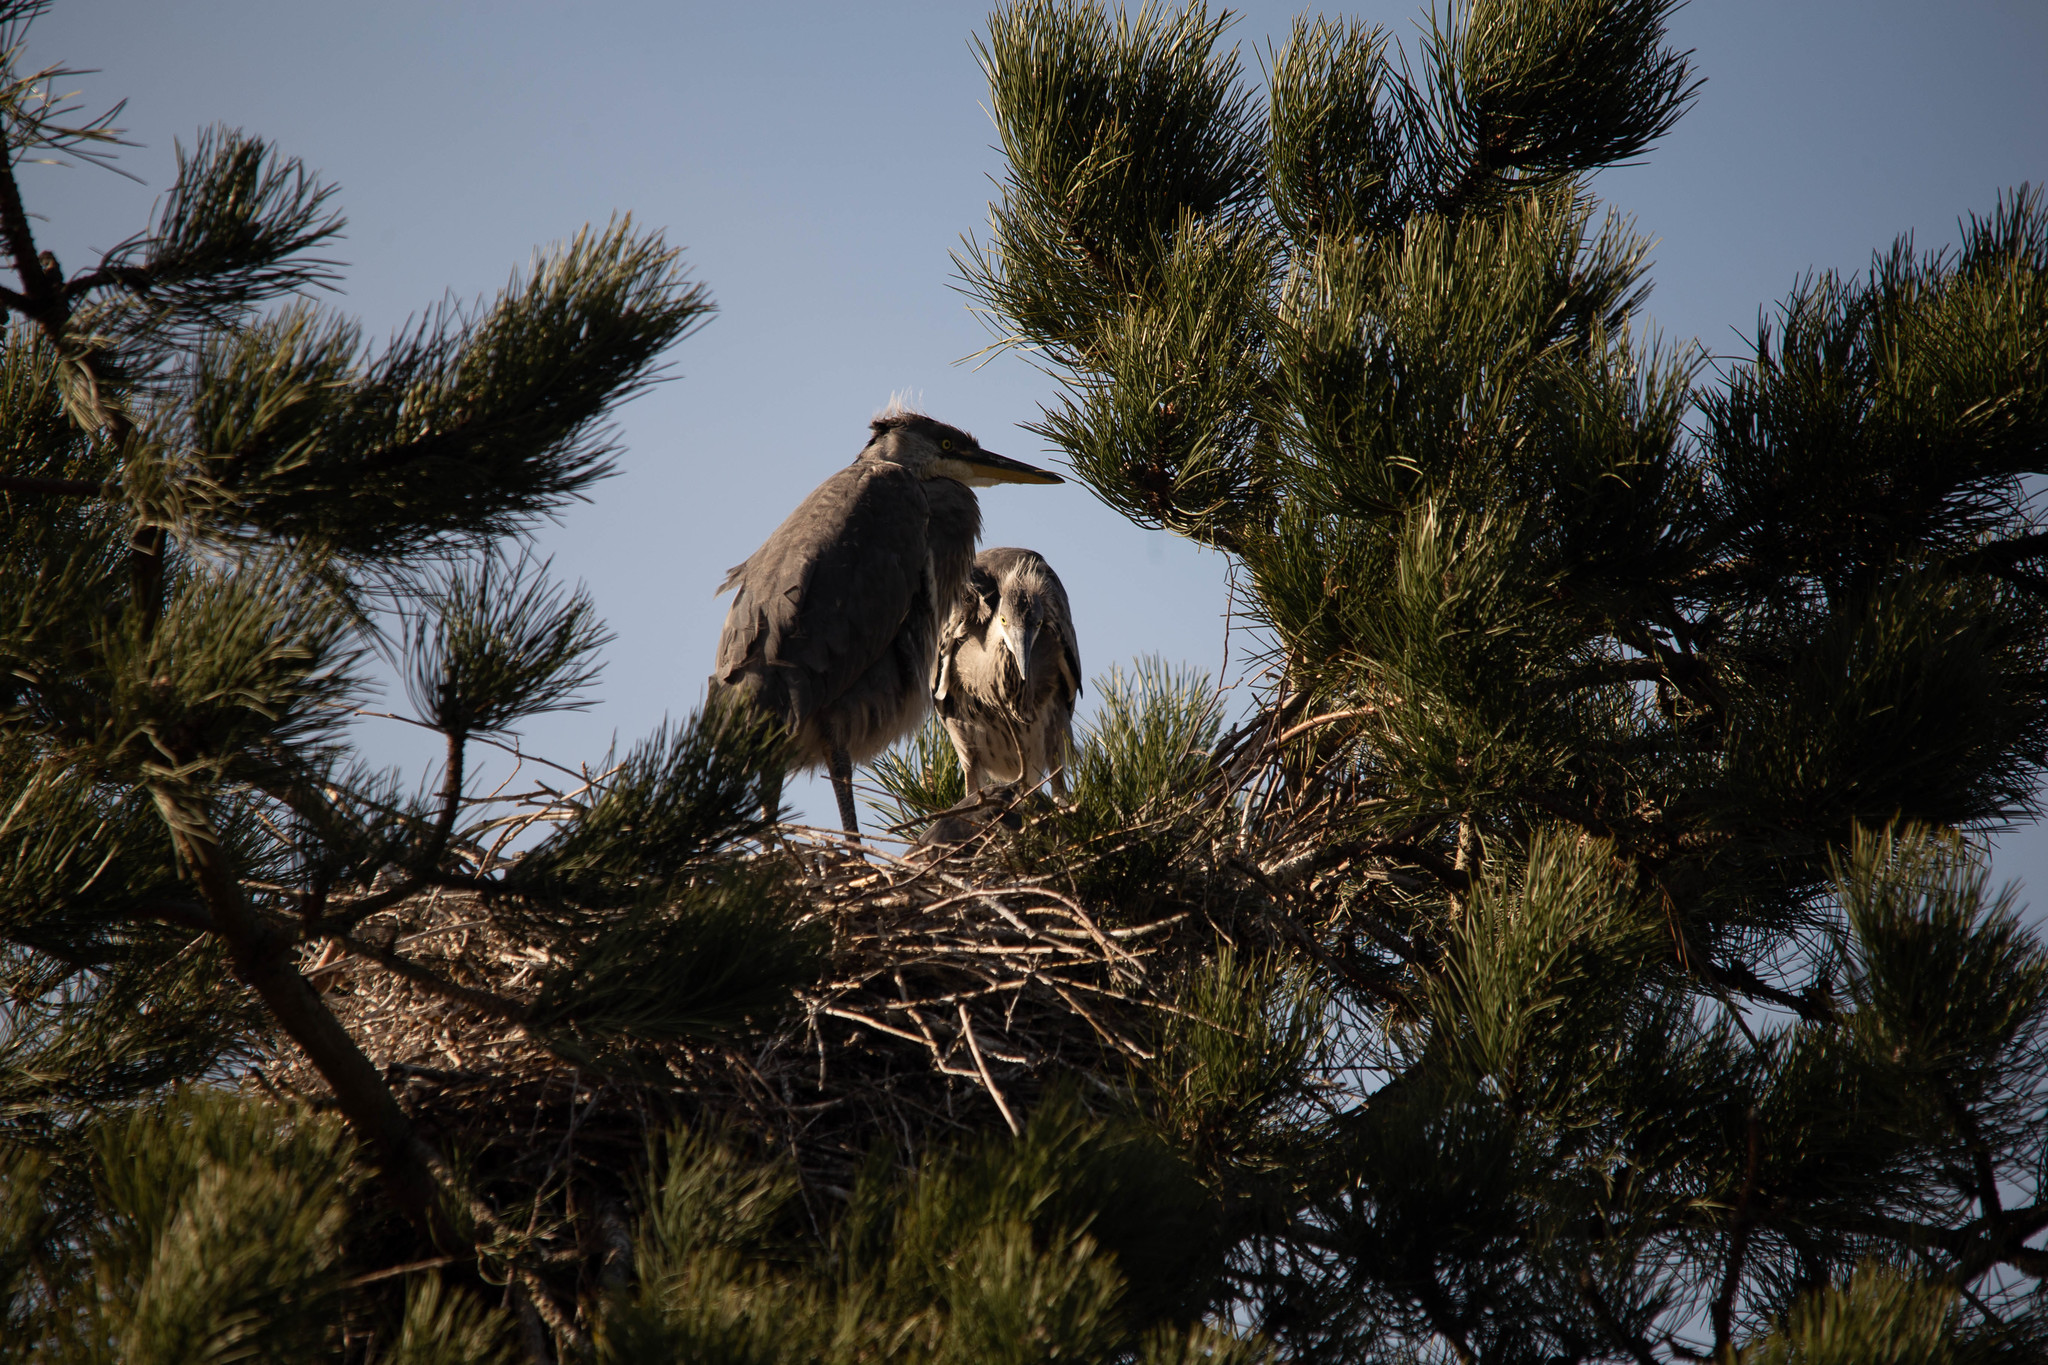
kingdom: Animalia
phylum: Chordata
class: Aves
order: Pelecaniformes
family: Ardeidae
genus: Ardea
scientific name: Ardea cinerea
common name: Grey heron
